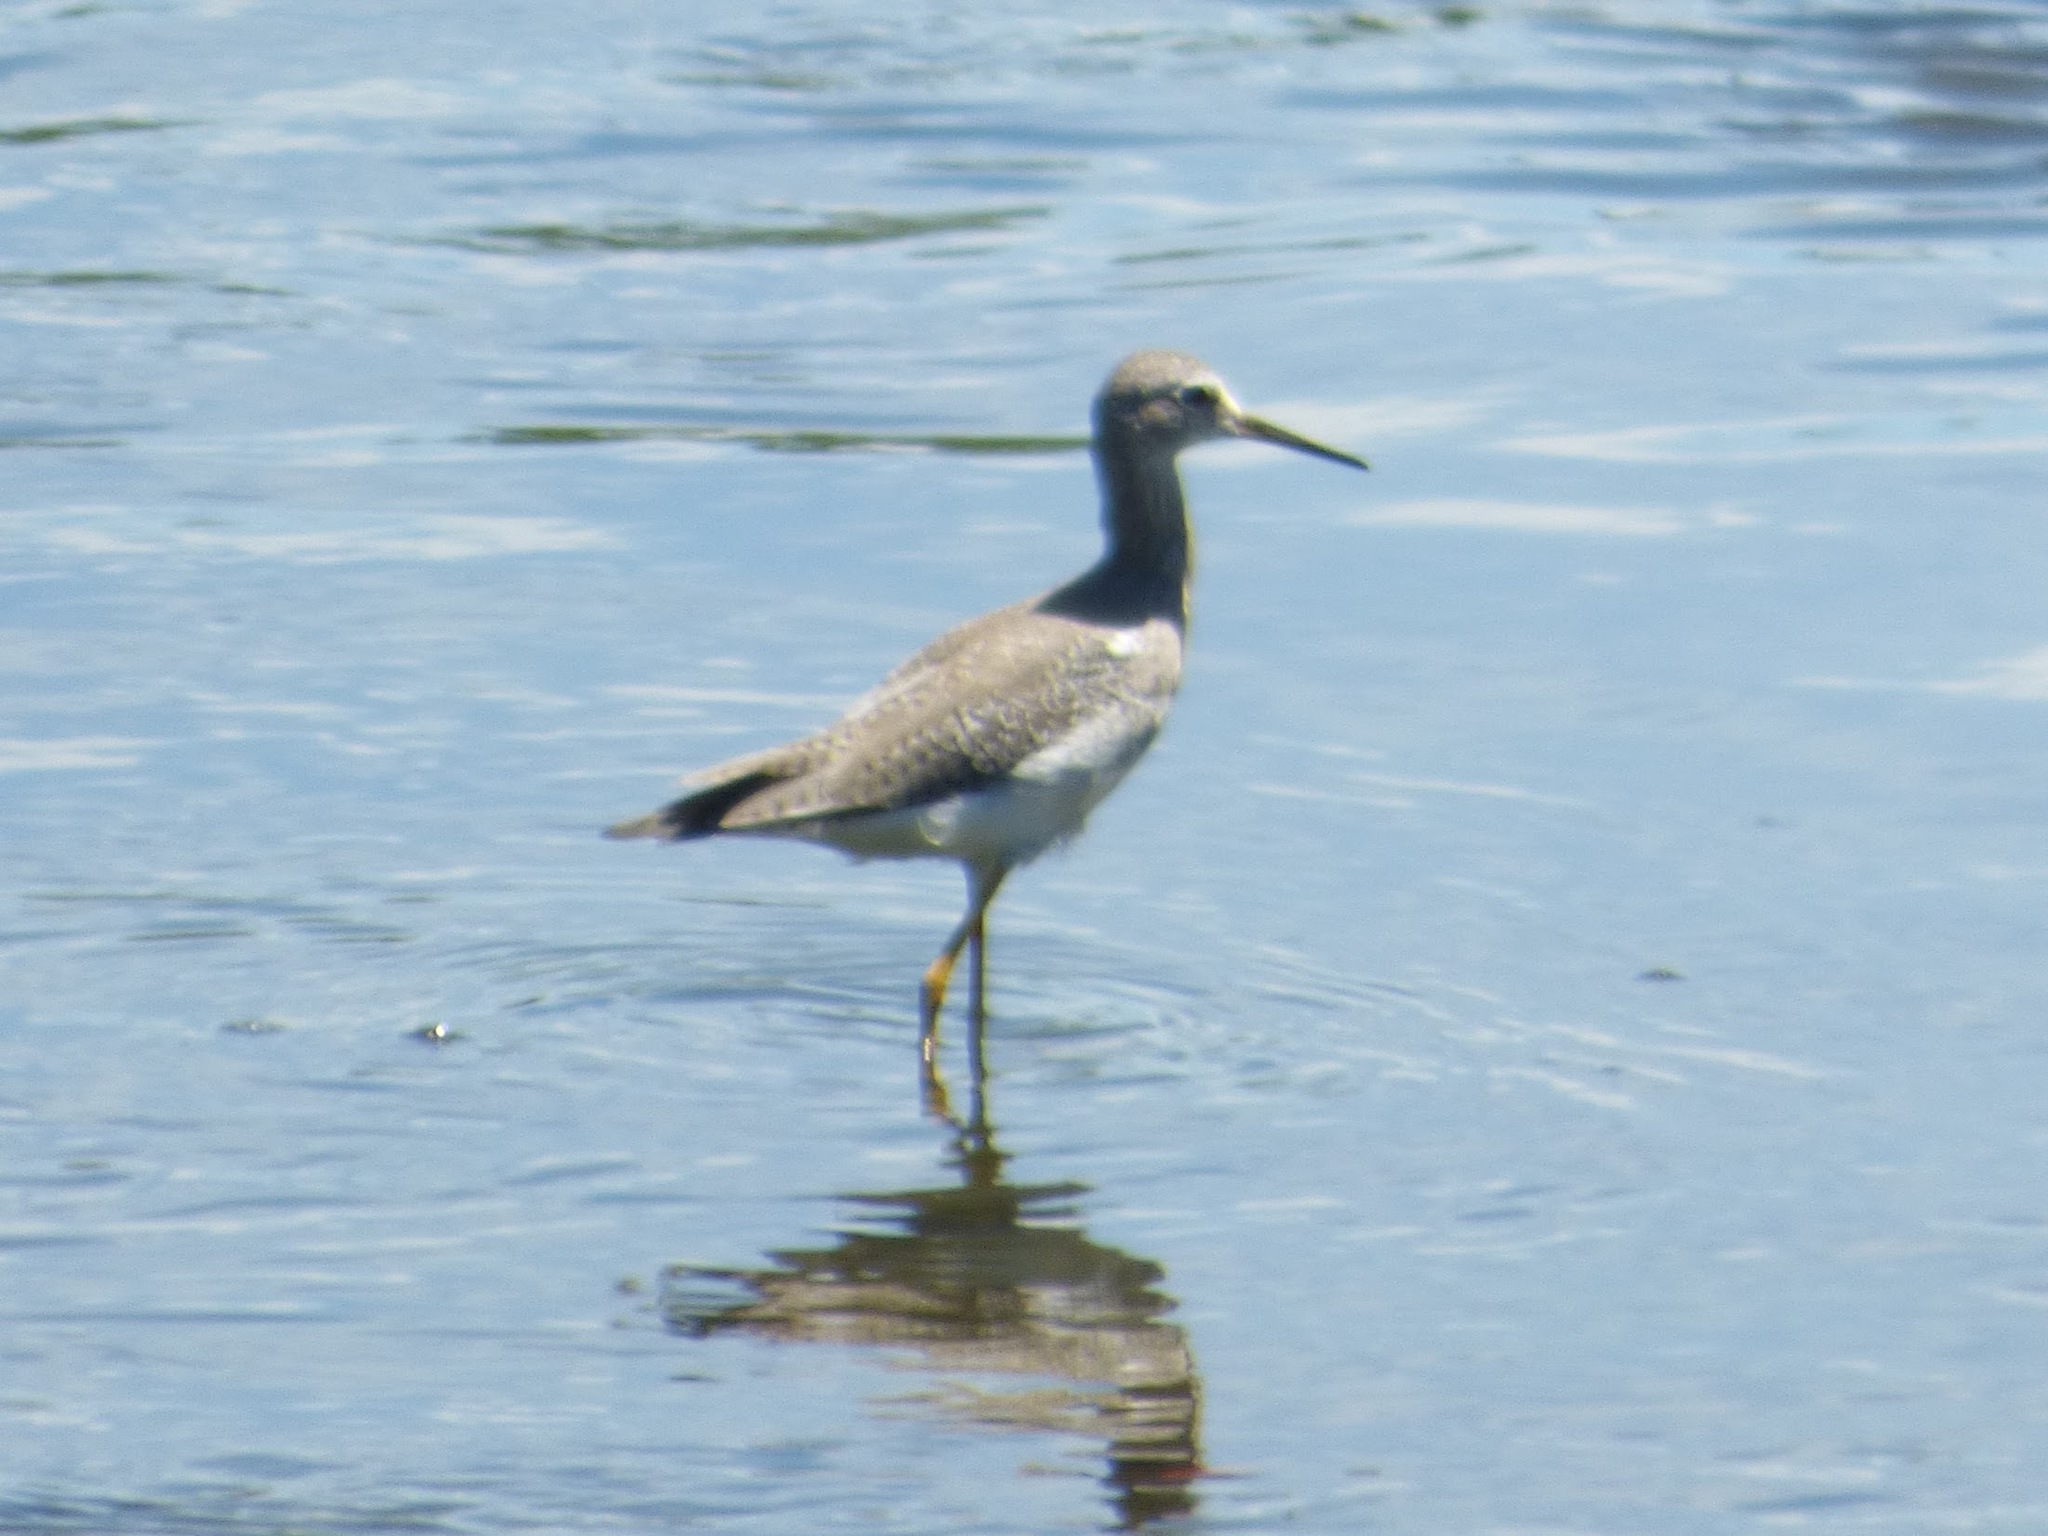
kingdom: Animalia
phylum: Chordata
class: Aves
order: Charadriiformes
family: Scolopacidae
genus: Tringa
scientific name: Tringa flavipes
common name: Lesser yellowlegs
